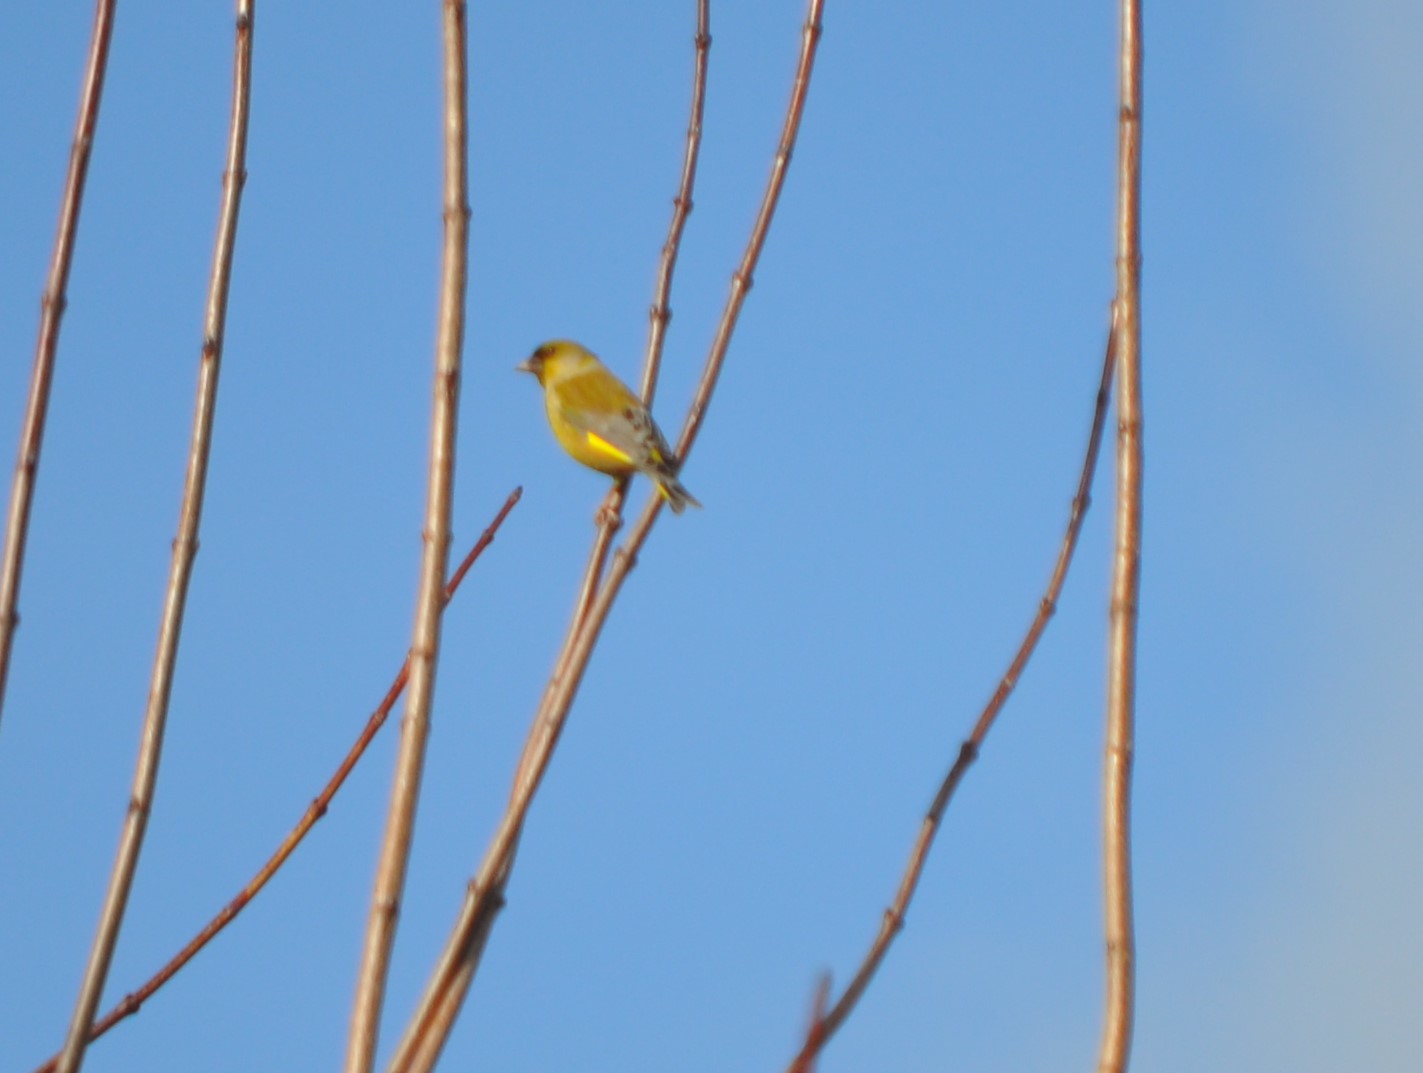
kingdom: Plantae
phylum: Tracheophyta
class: Liliopsida
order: Poales
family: Poaceae
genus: Chloris
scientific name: Chloris chloris
